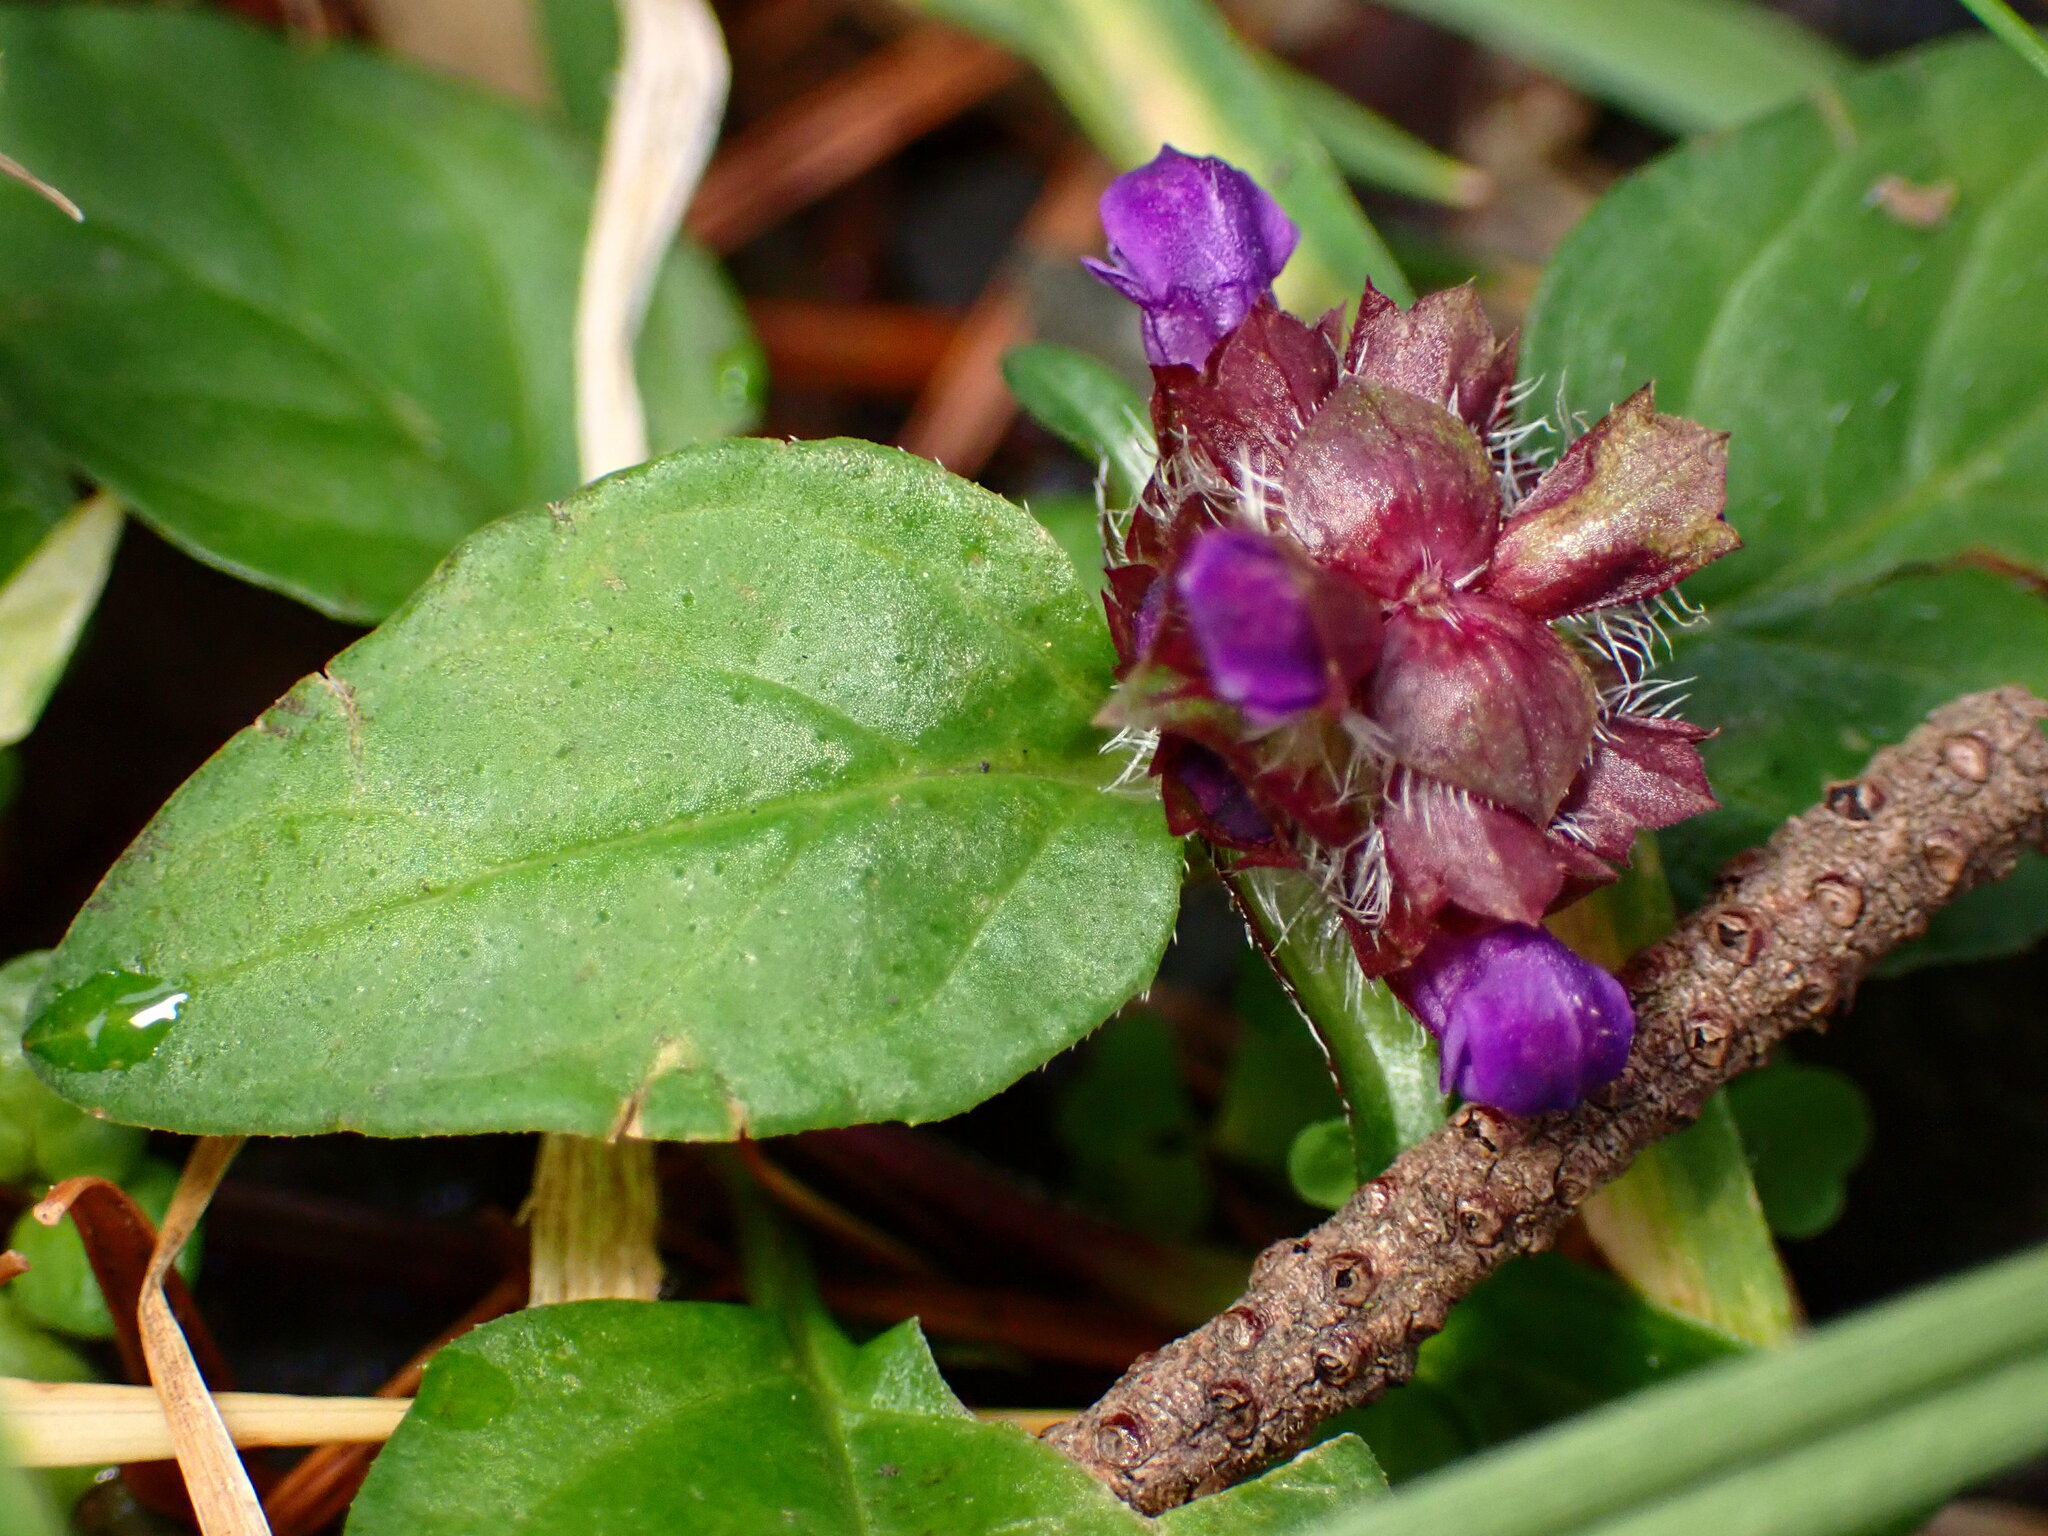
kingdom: Plantae
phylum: Tracheophyta
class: Magnoliopsida
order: Lamiales
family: Lamiaceae
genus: Prunella
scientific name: Prunella vulgaris
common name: Heal-all
